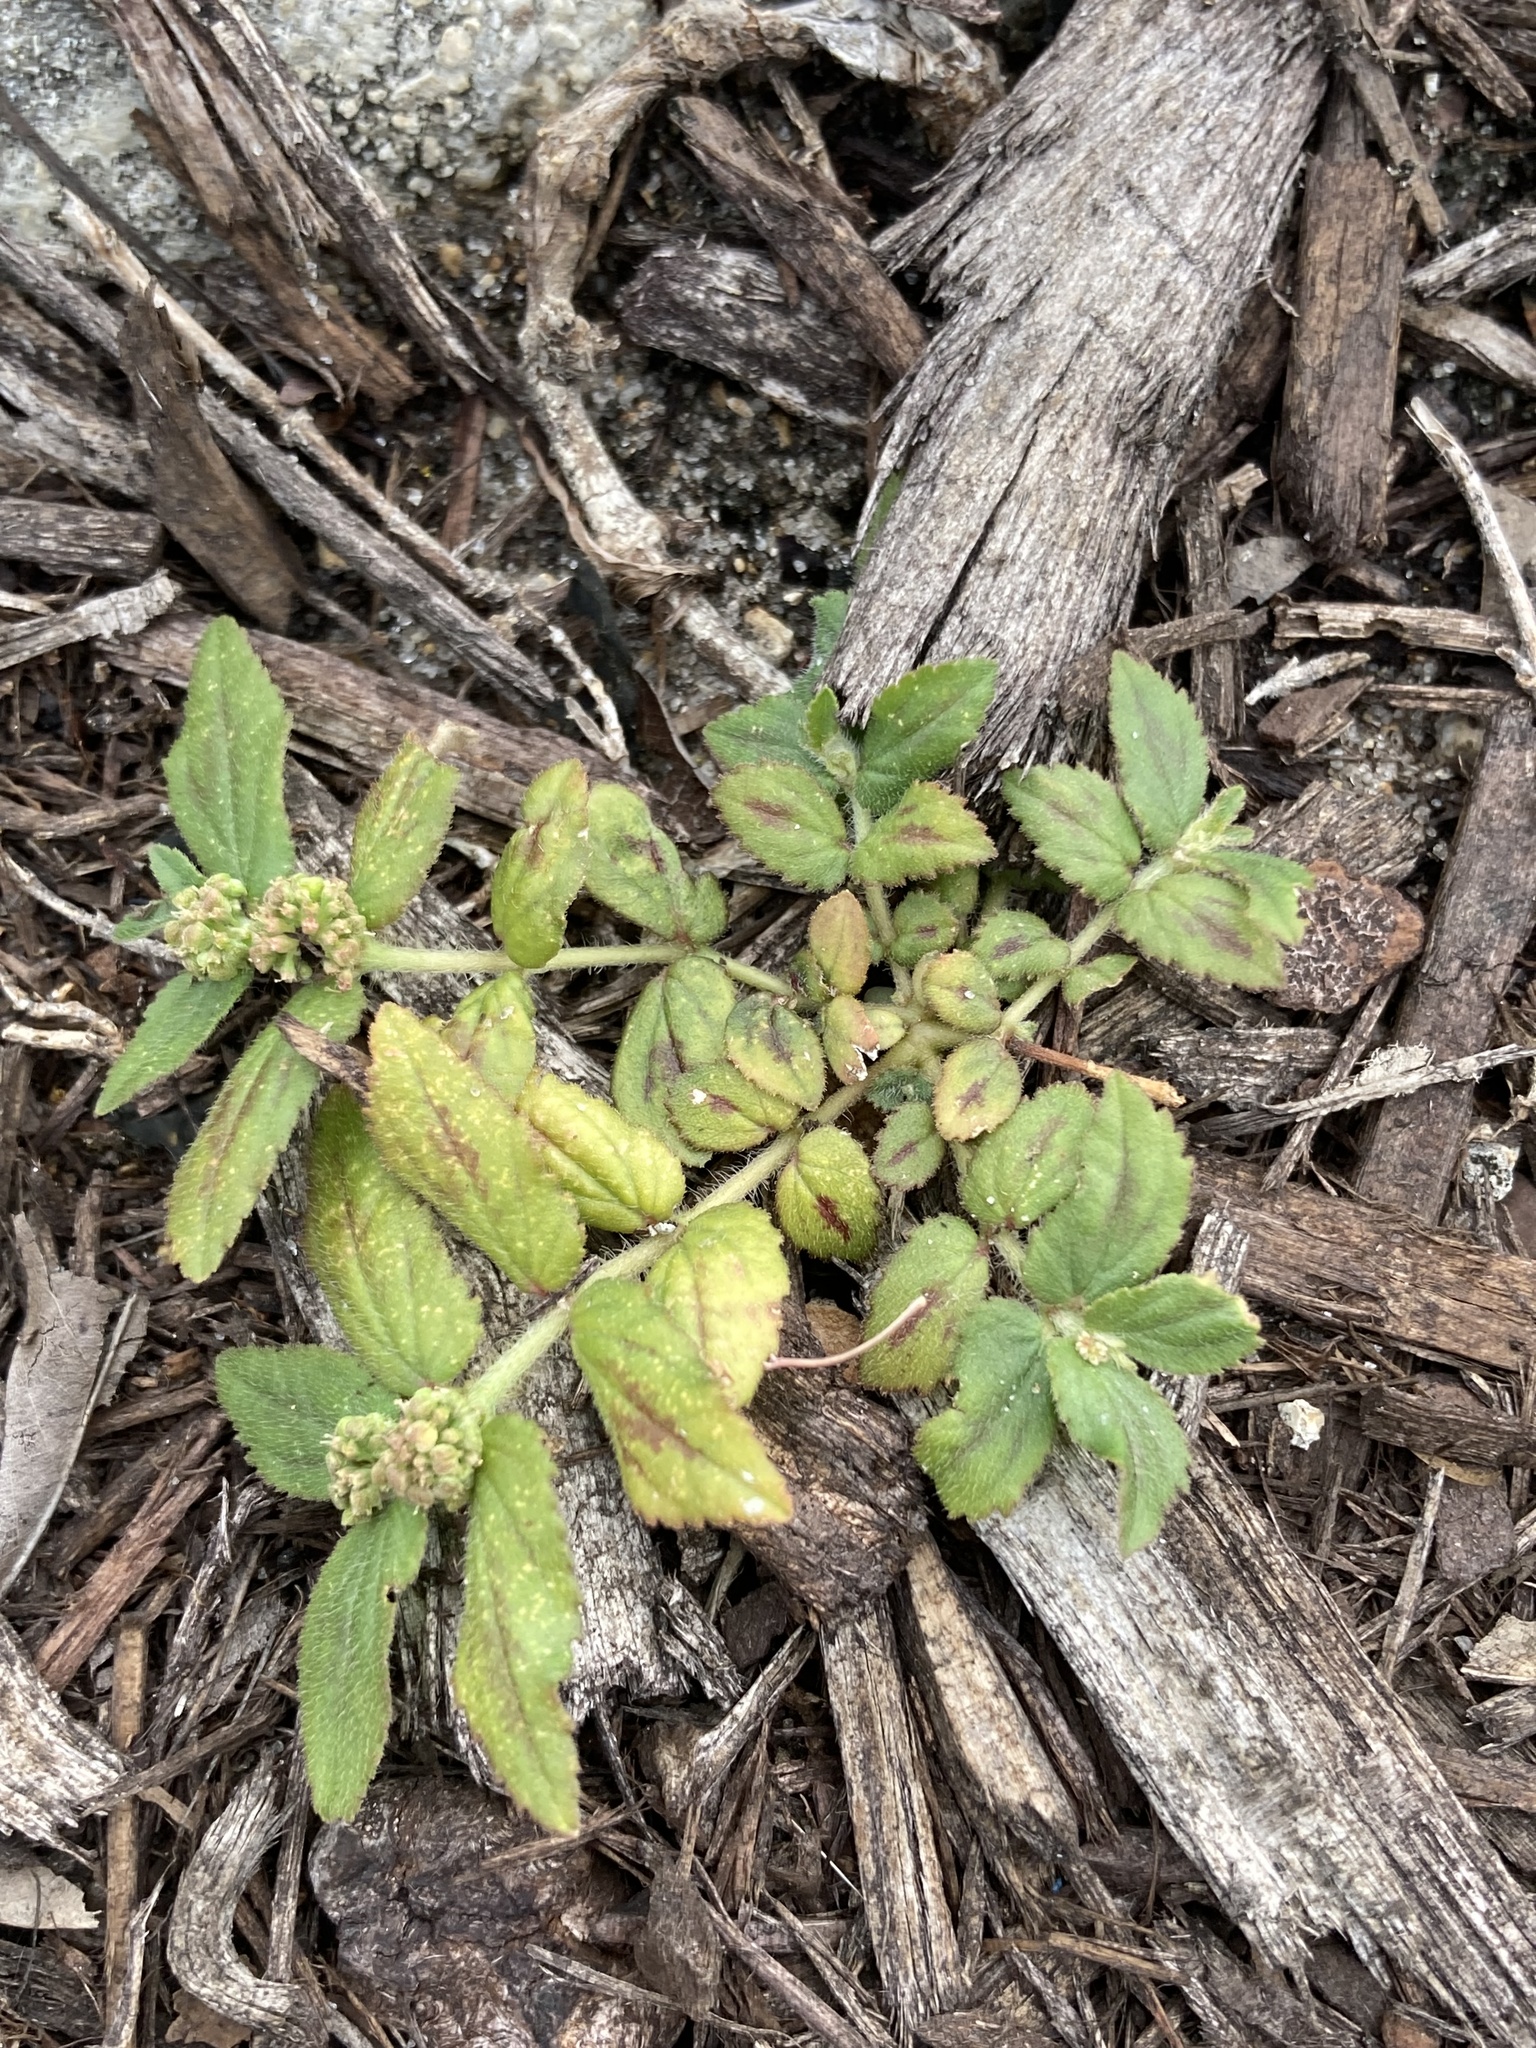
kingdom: Plantae
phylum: Tracheophyta
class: Magnoliopsida
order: Malpighiales
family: Euphorbiaceae
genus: Euphorbia
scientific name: Euphorbia hirta
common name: Pillpod sandmat
